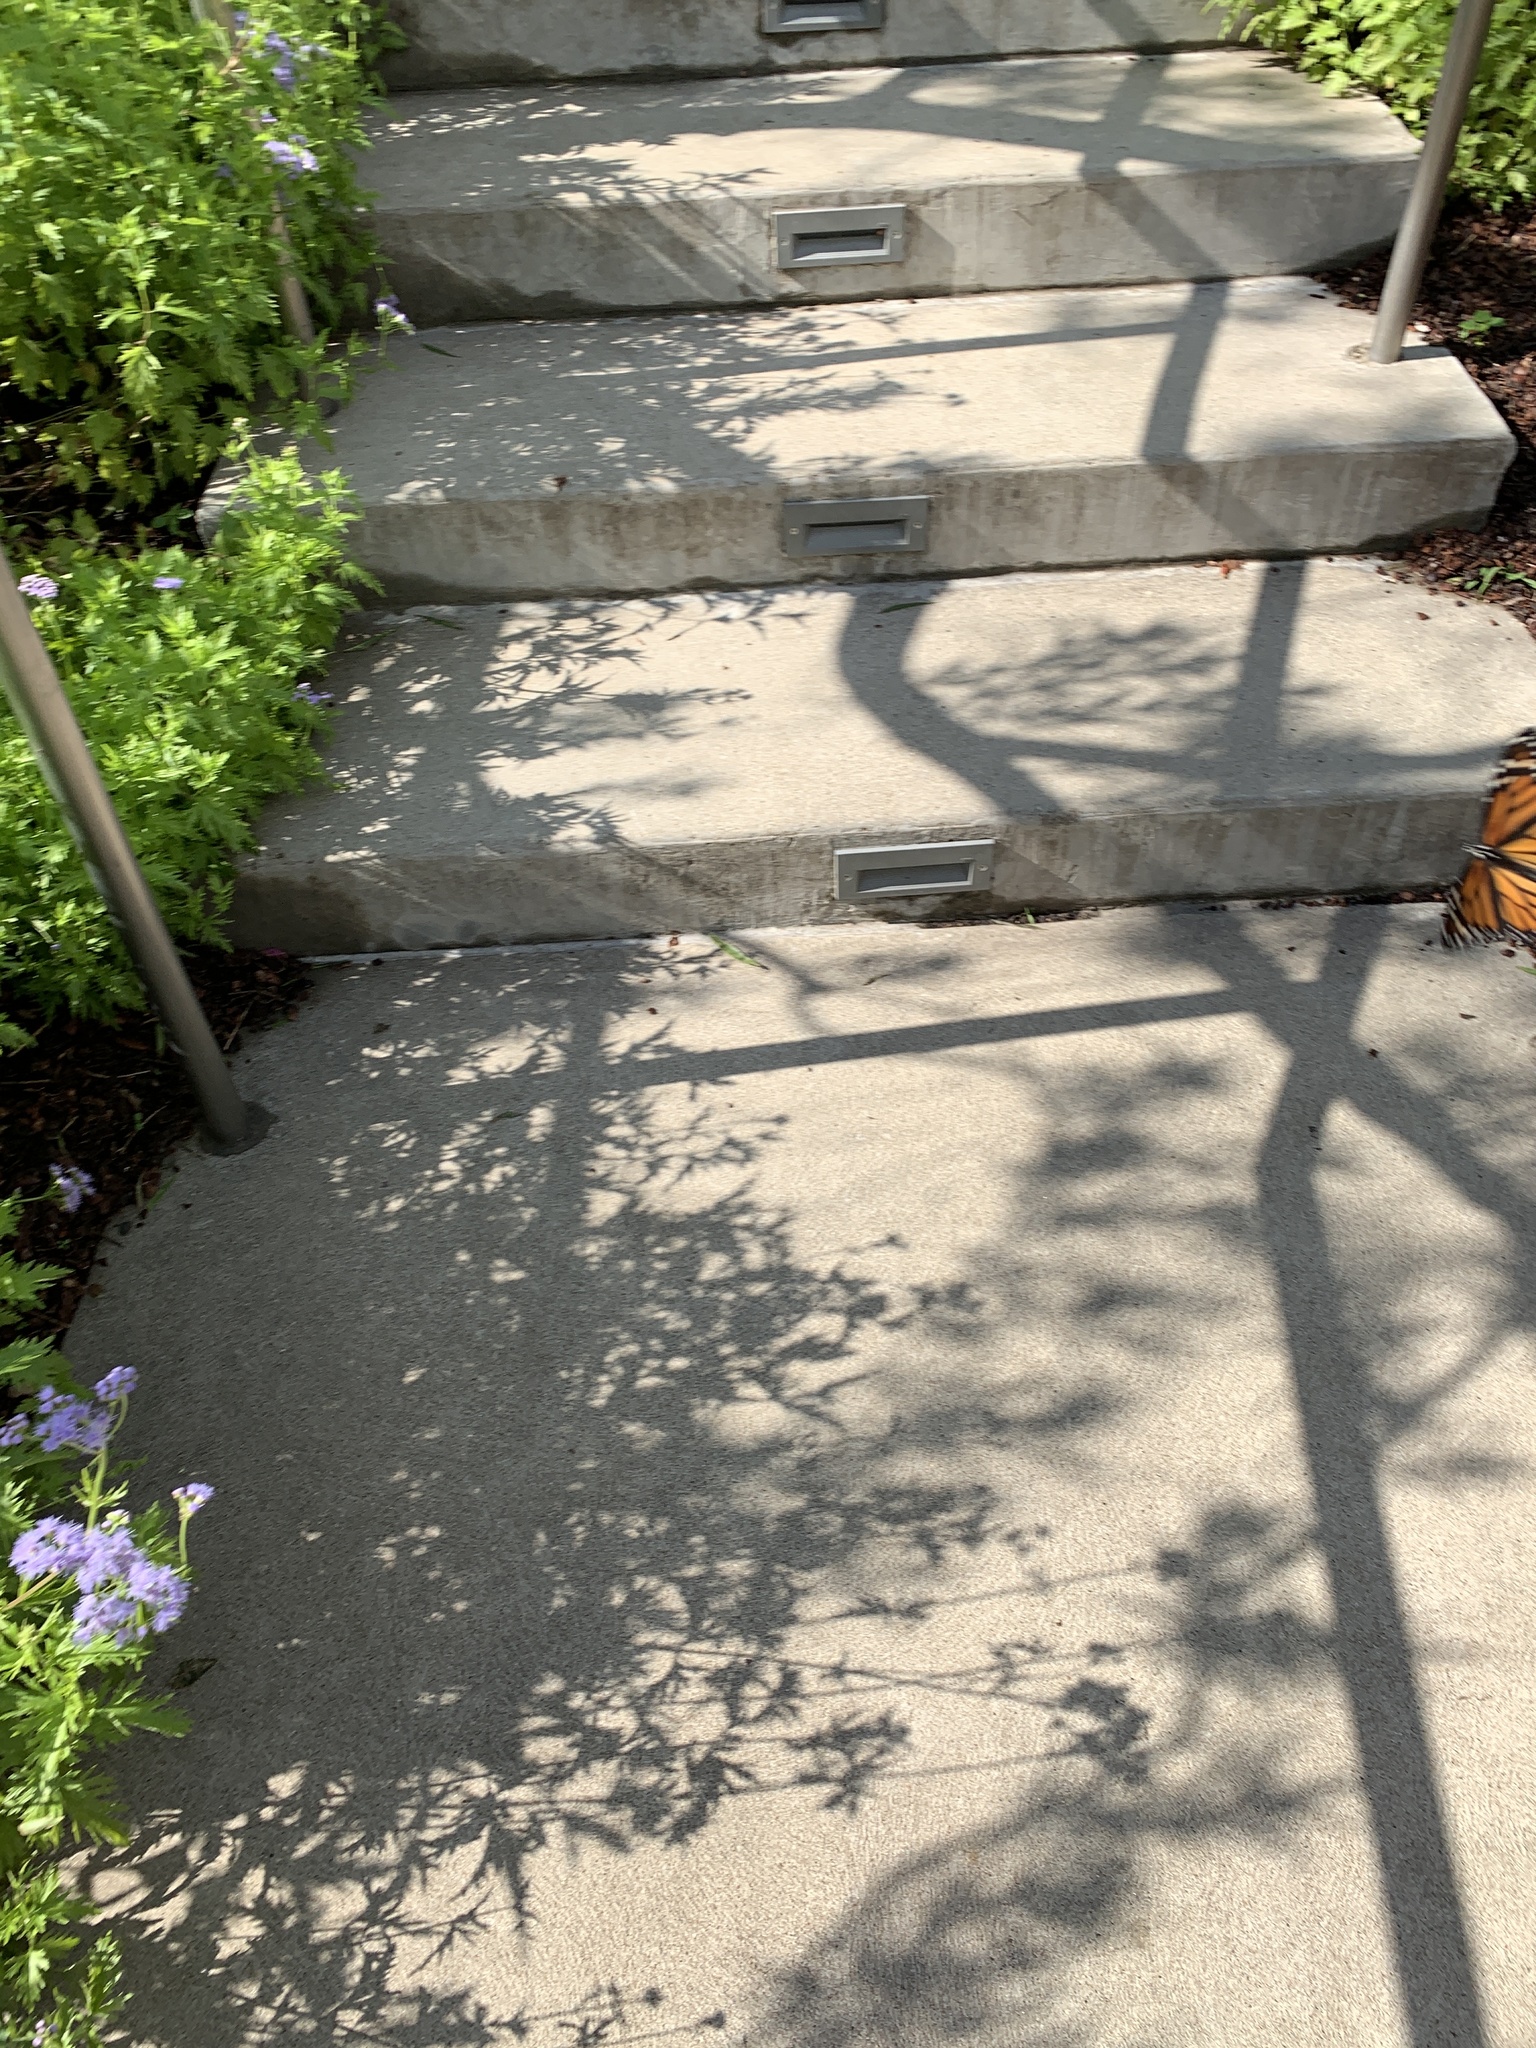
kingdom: Animalia
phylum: Arthropoda
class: Insecta
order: Lepidoptera
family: Nymphalidae
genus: Danaus
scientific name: Danaus plexippus
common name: Monarch
